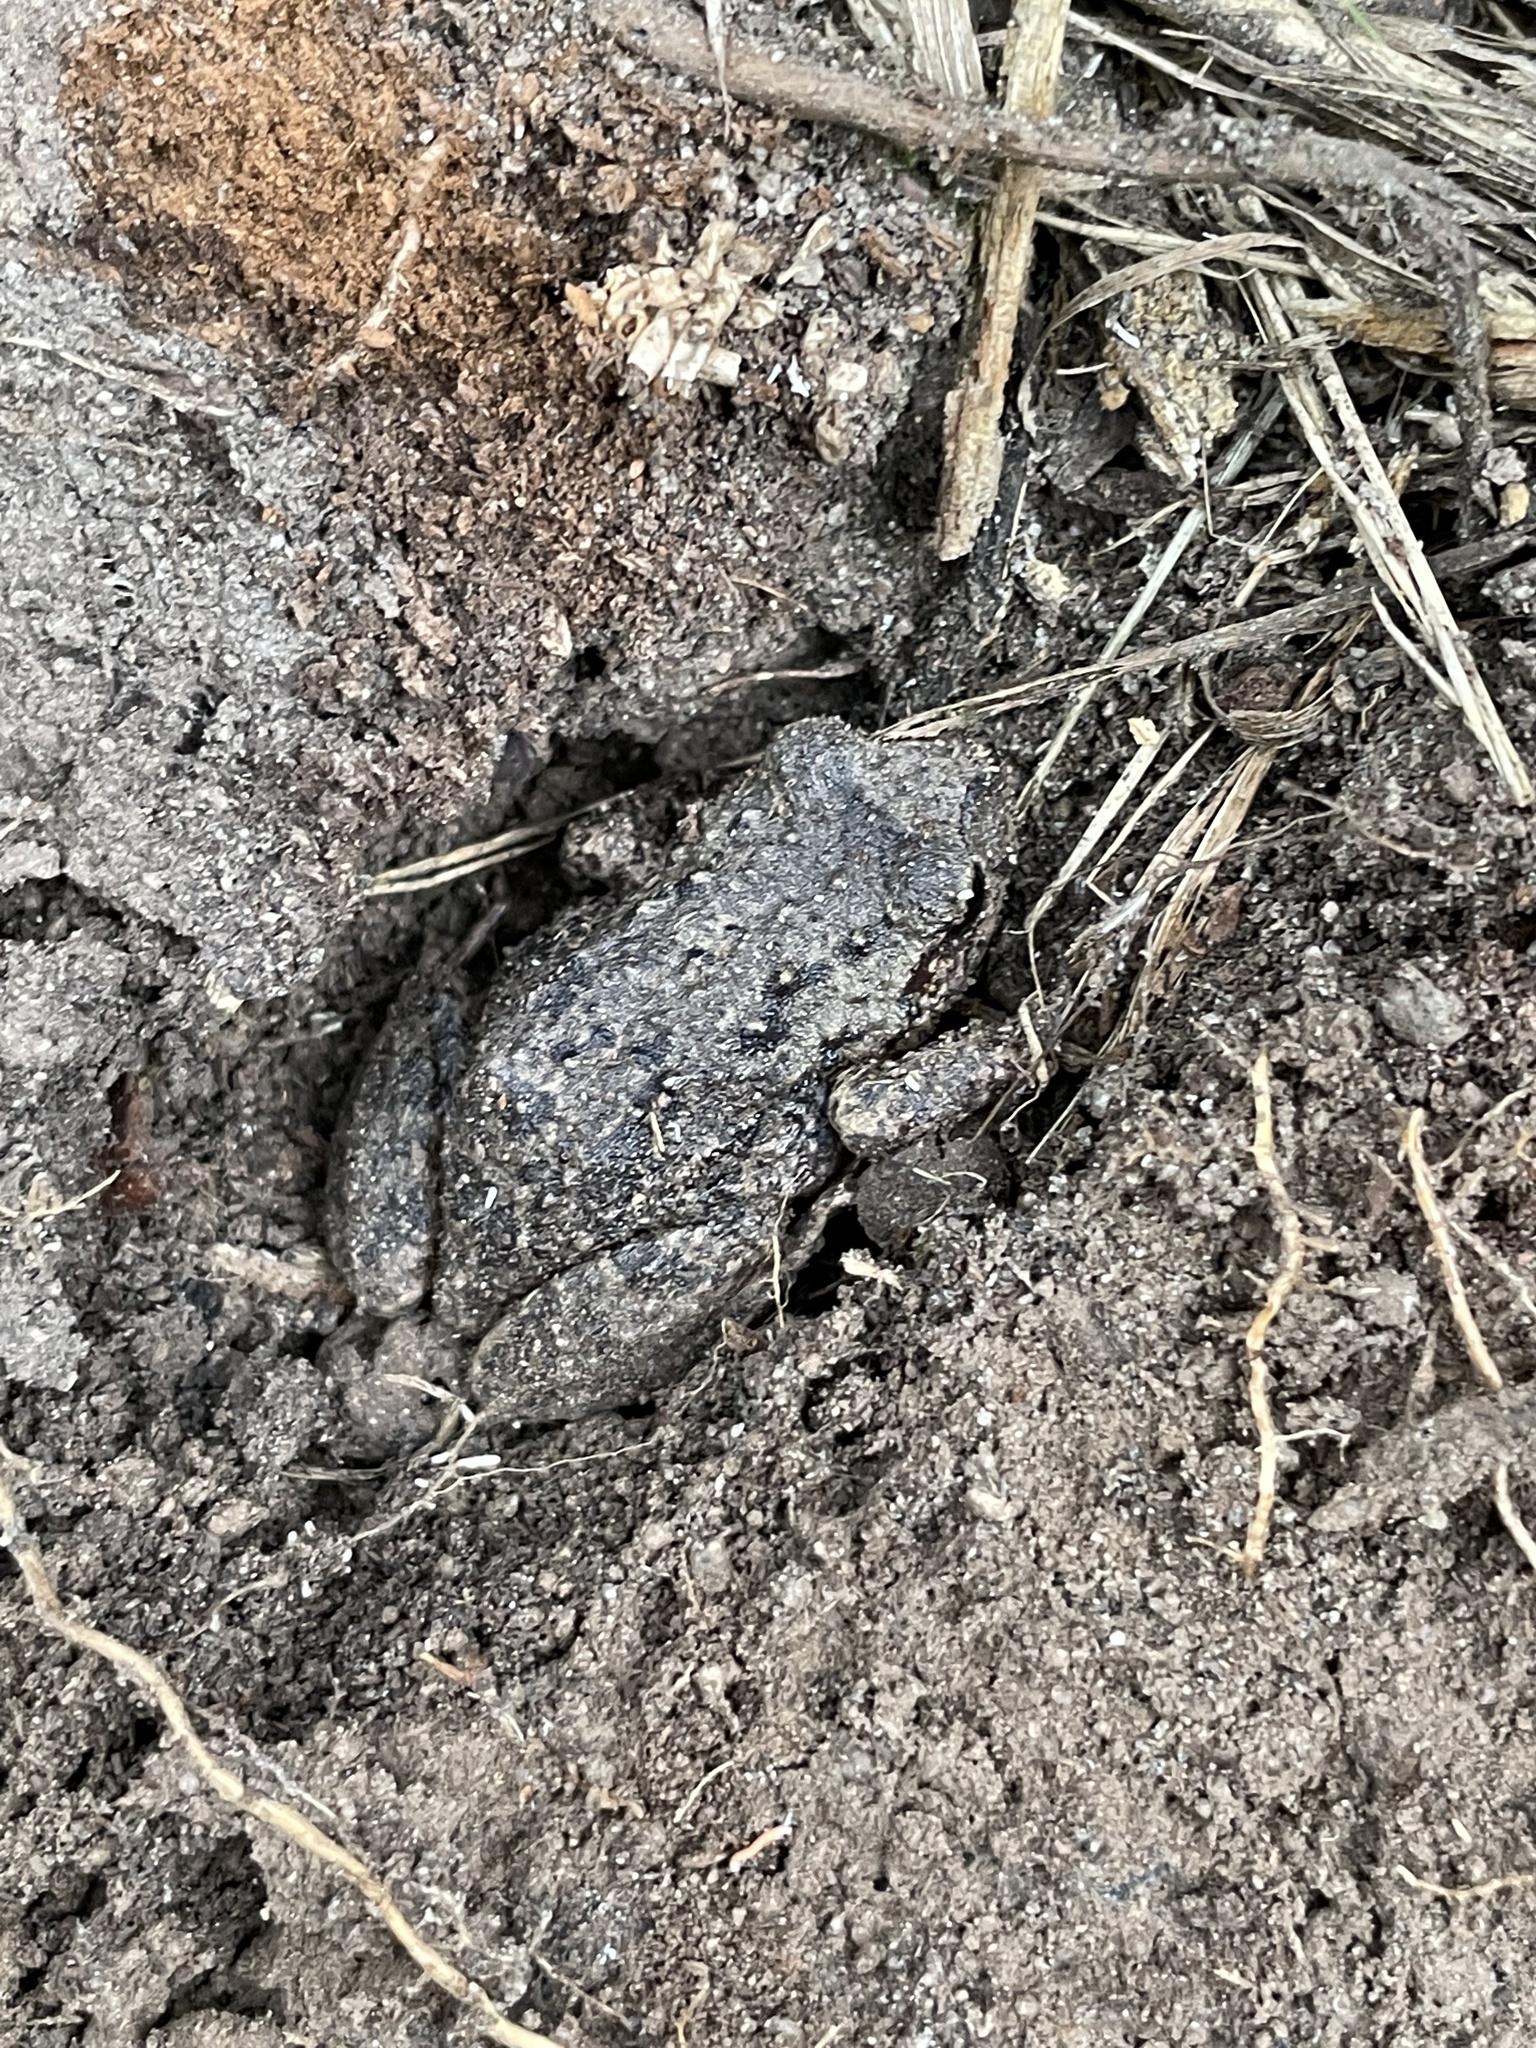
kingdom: Animalia
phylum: Chordata
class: Amphibia
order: Anura
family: Craugastoridae
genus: Pristimantis
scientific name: Pristimantis unistrigatus
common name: Striped robber frog
